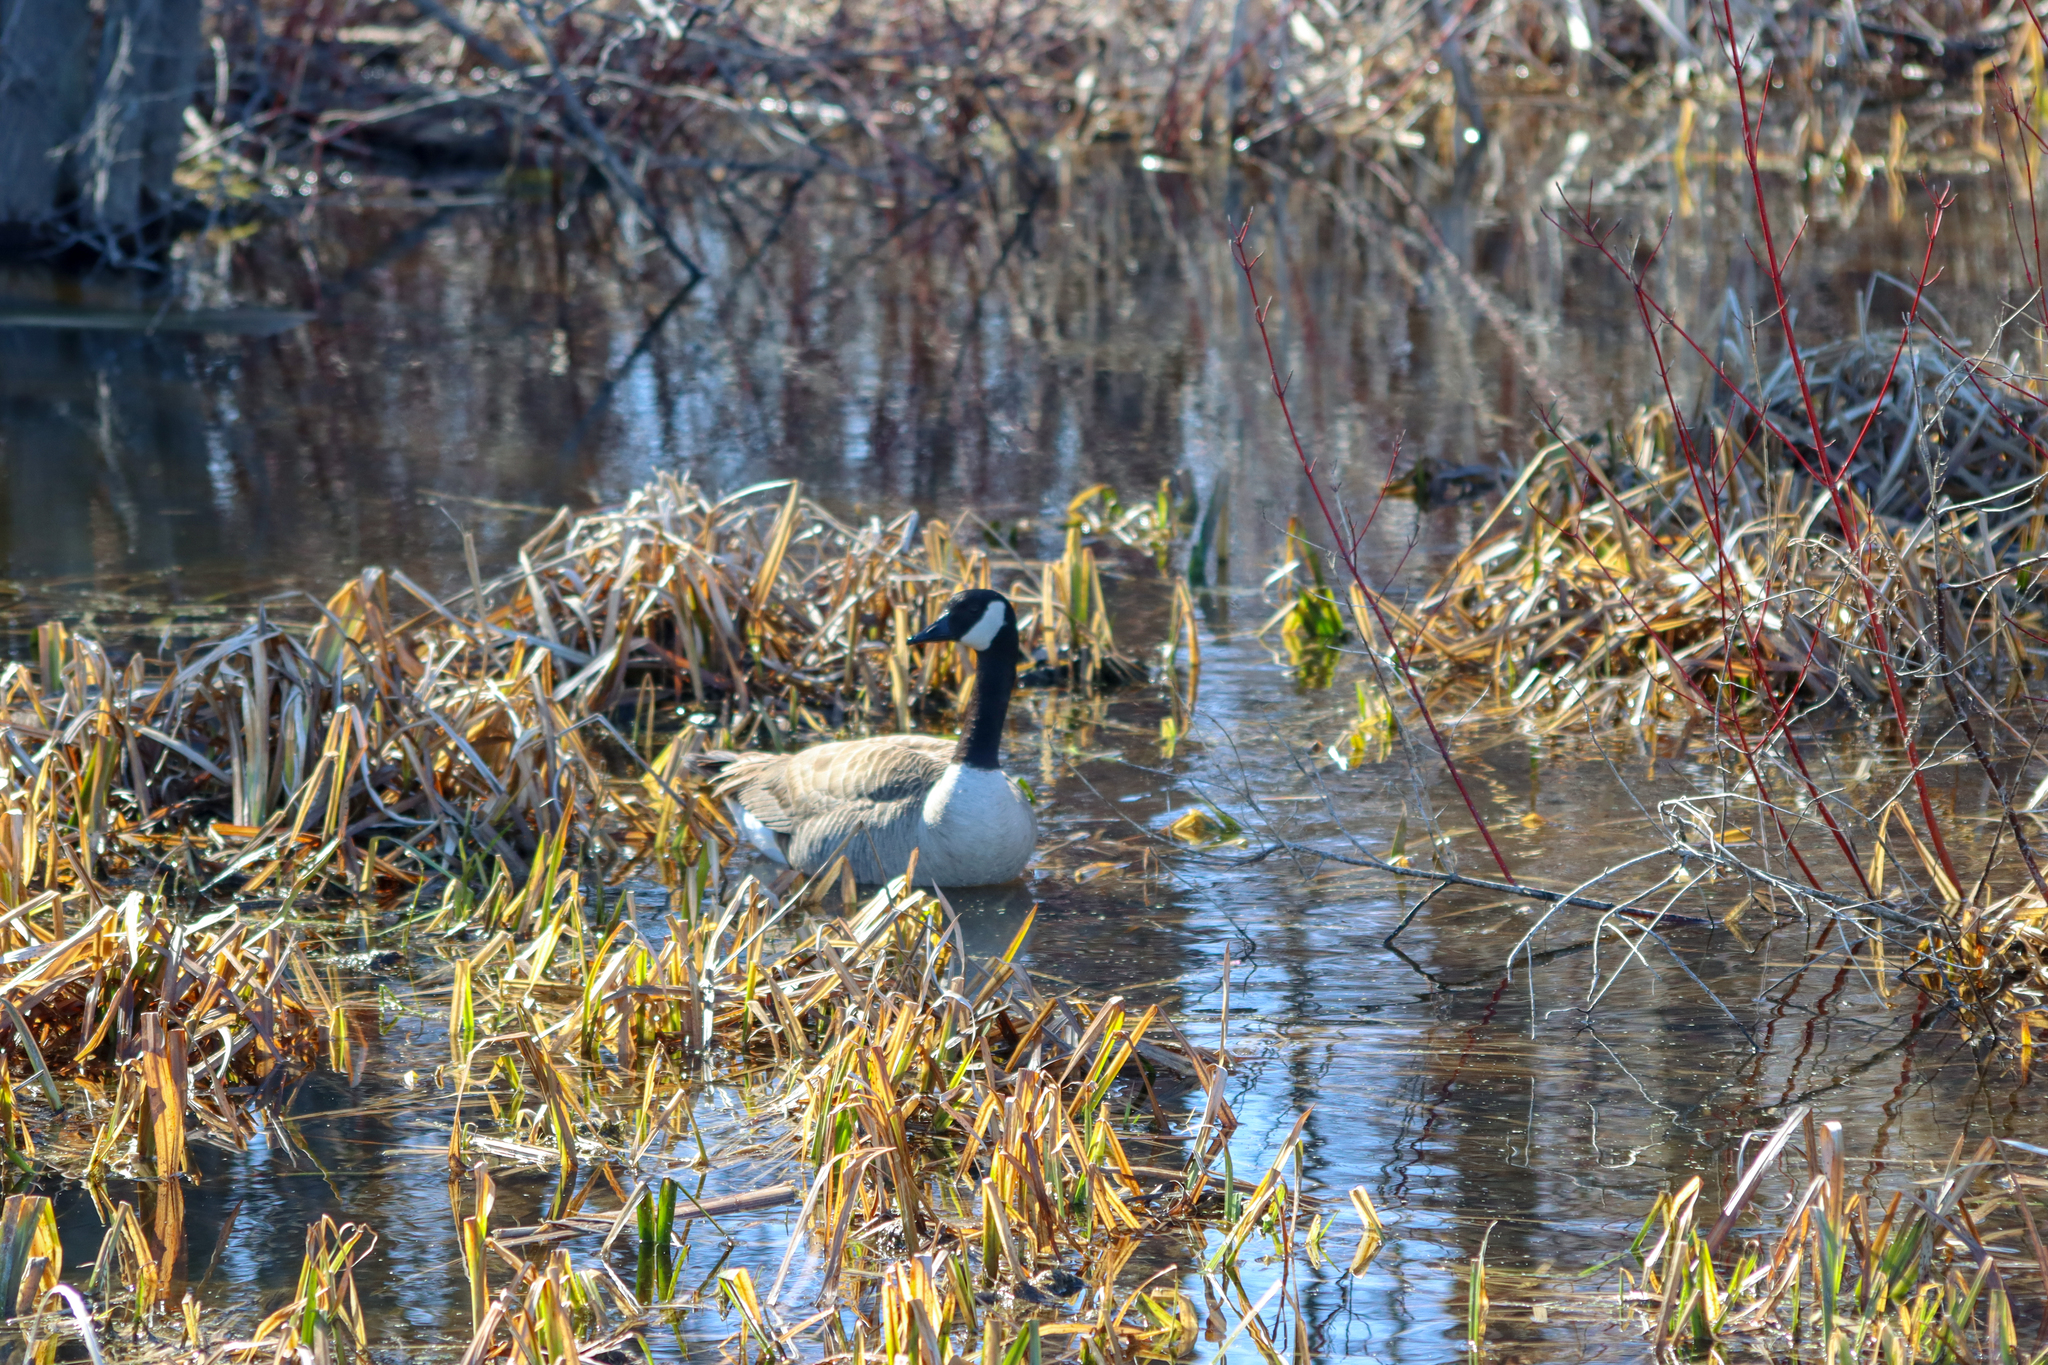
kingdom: Animalia
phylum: Chordata
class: Aves
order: Anseriformes
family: Anatidae
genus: Branta
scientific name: Branta canadensis
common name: Canada goose
